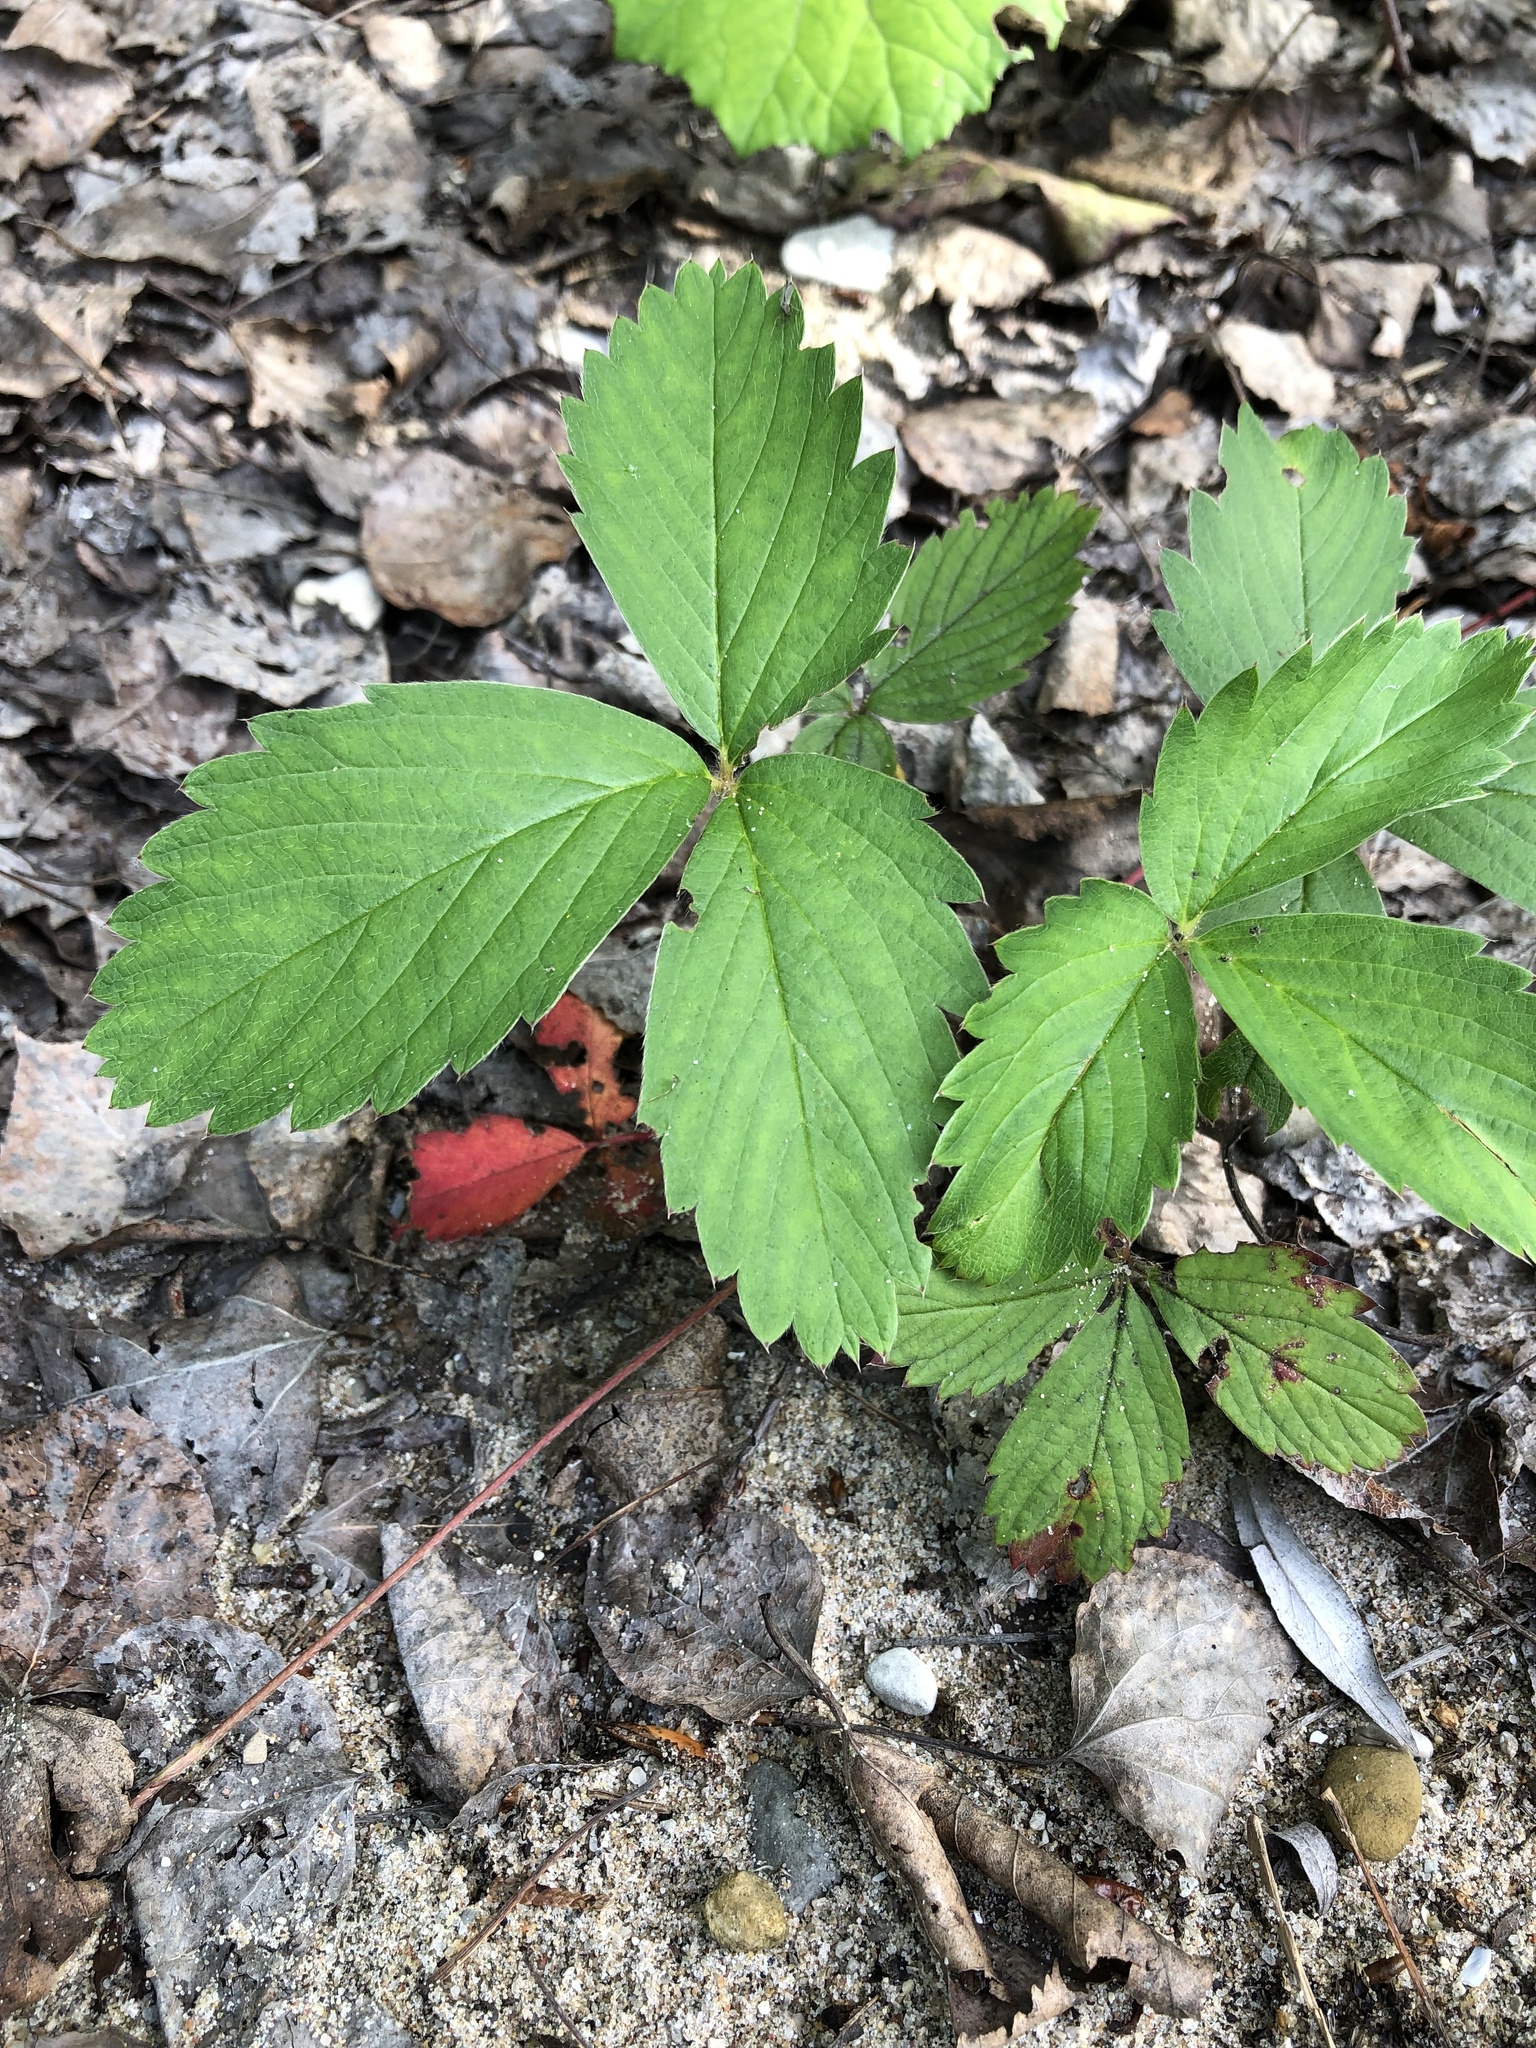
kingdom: Plantae
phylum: Tracheophyta
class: Magnoliopsida
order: Rosales
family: Rosaceae
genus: Fragaria
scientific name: Fragaria virginiana
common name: Thickleaved wild strawberry
